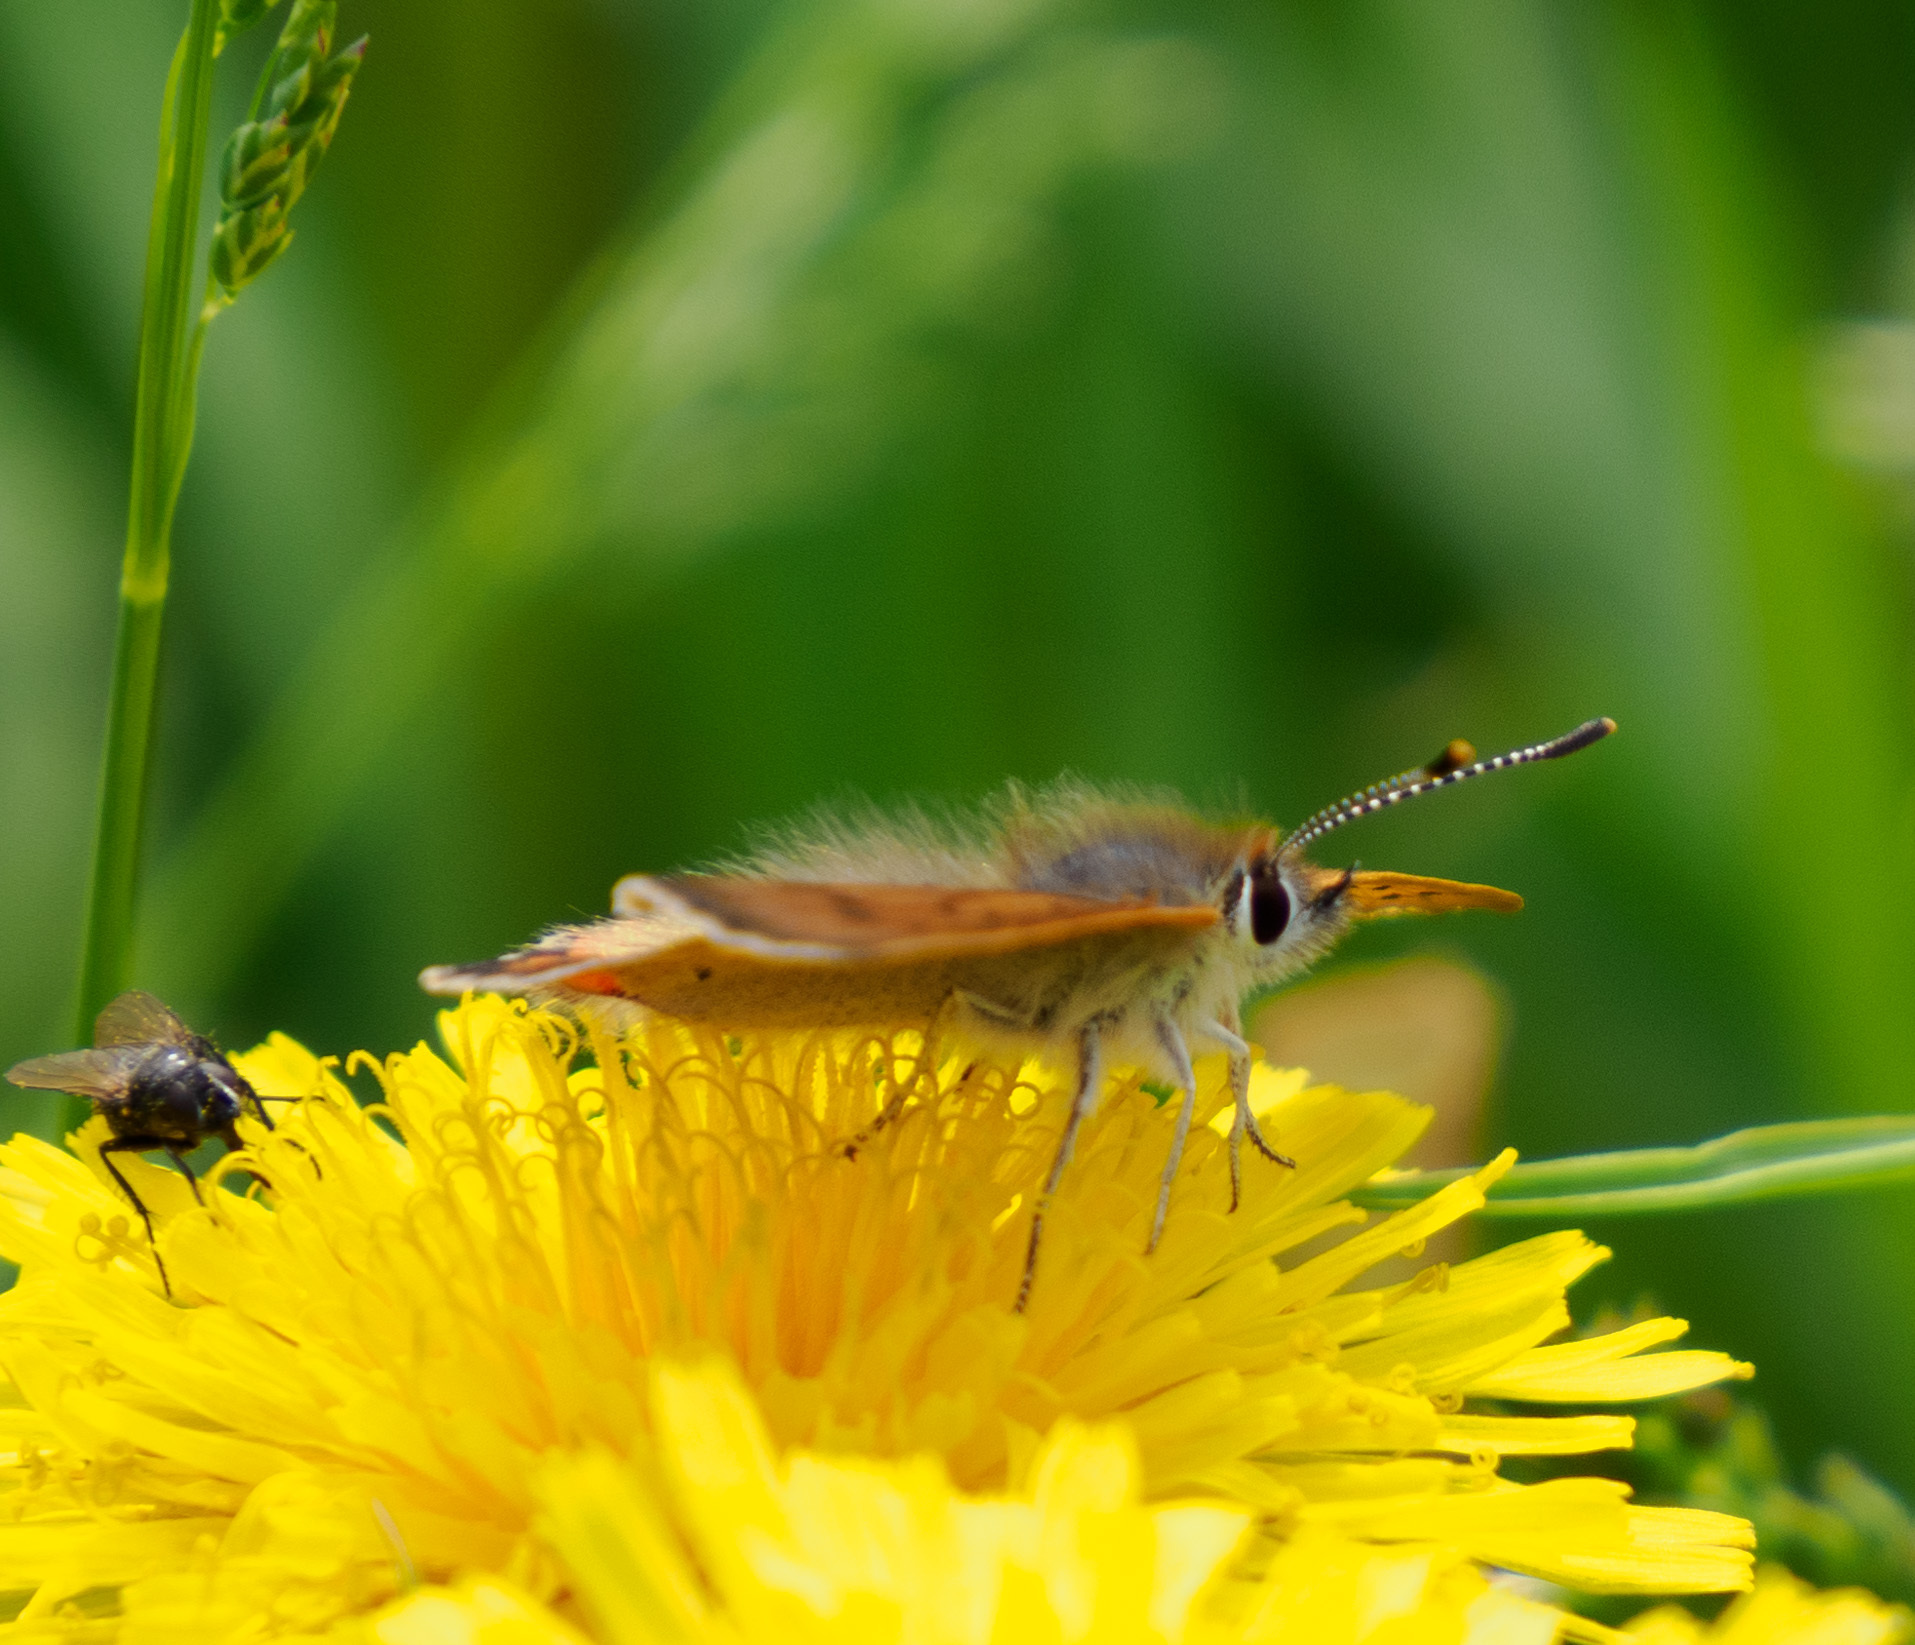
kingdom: Animalia
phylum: Arthropoda
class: Insecta
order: Lepidoptera
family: Lycaenidae
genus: Tharsalea
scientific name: Tharsalea helloides
